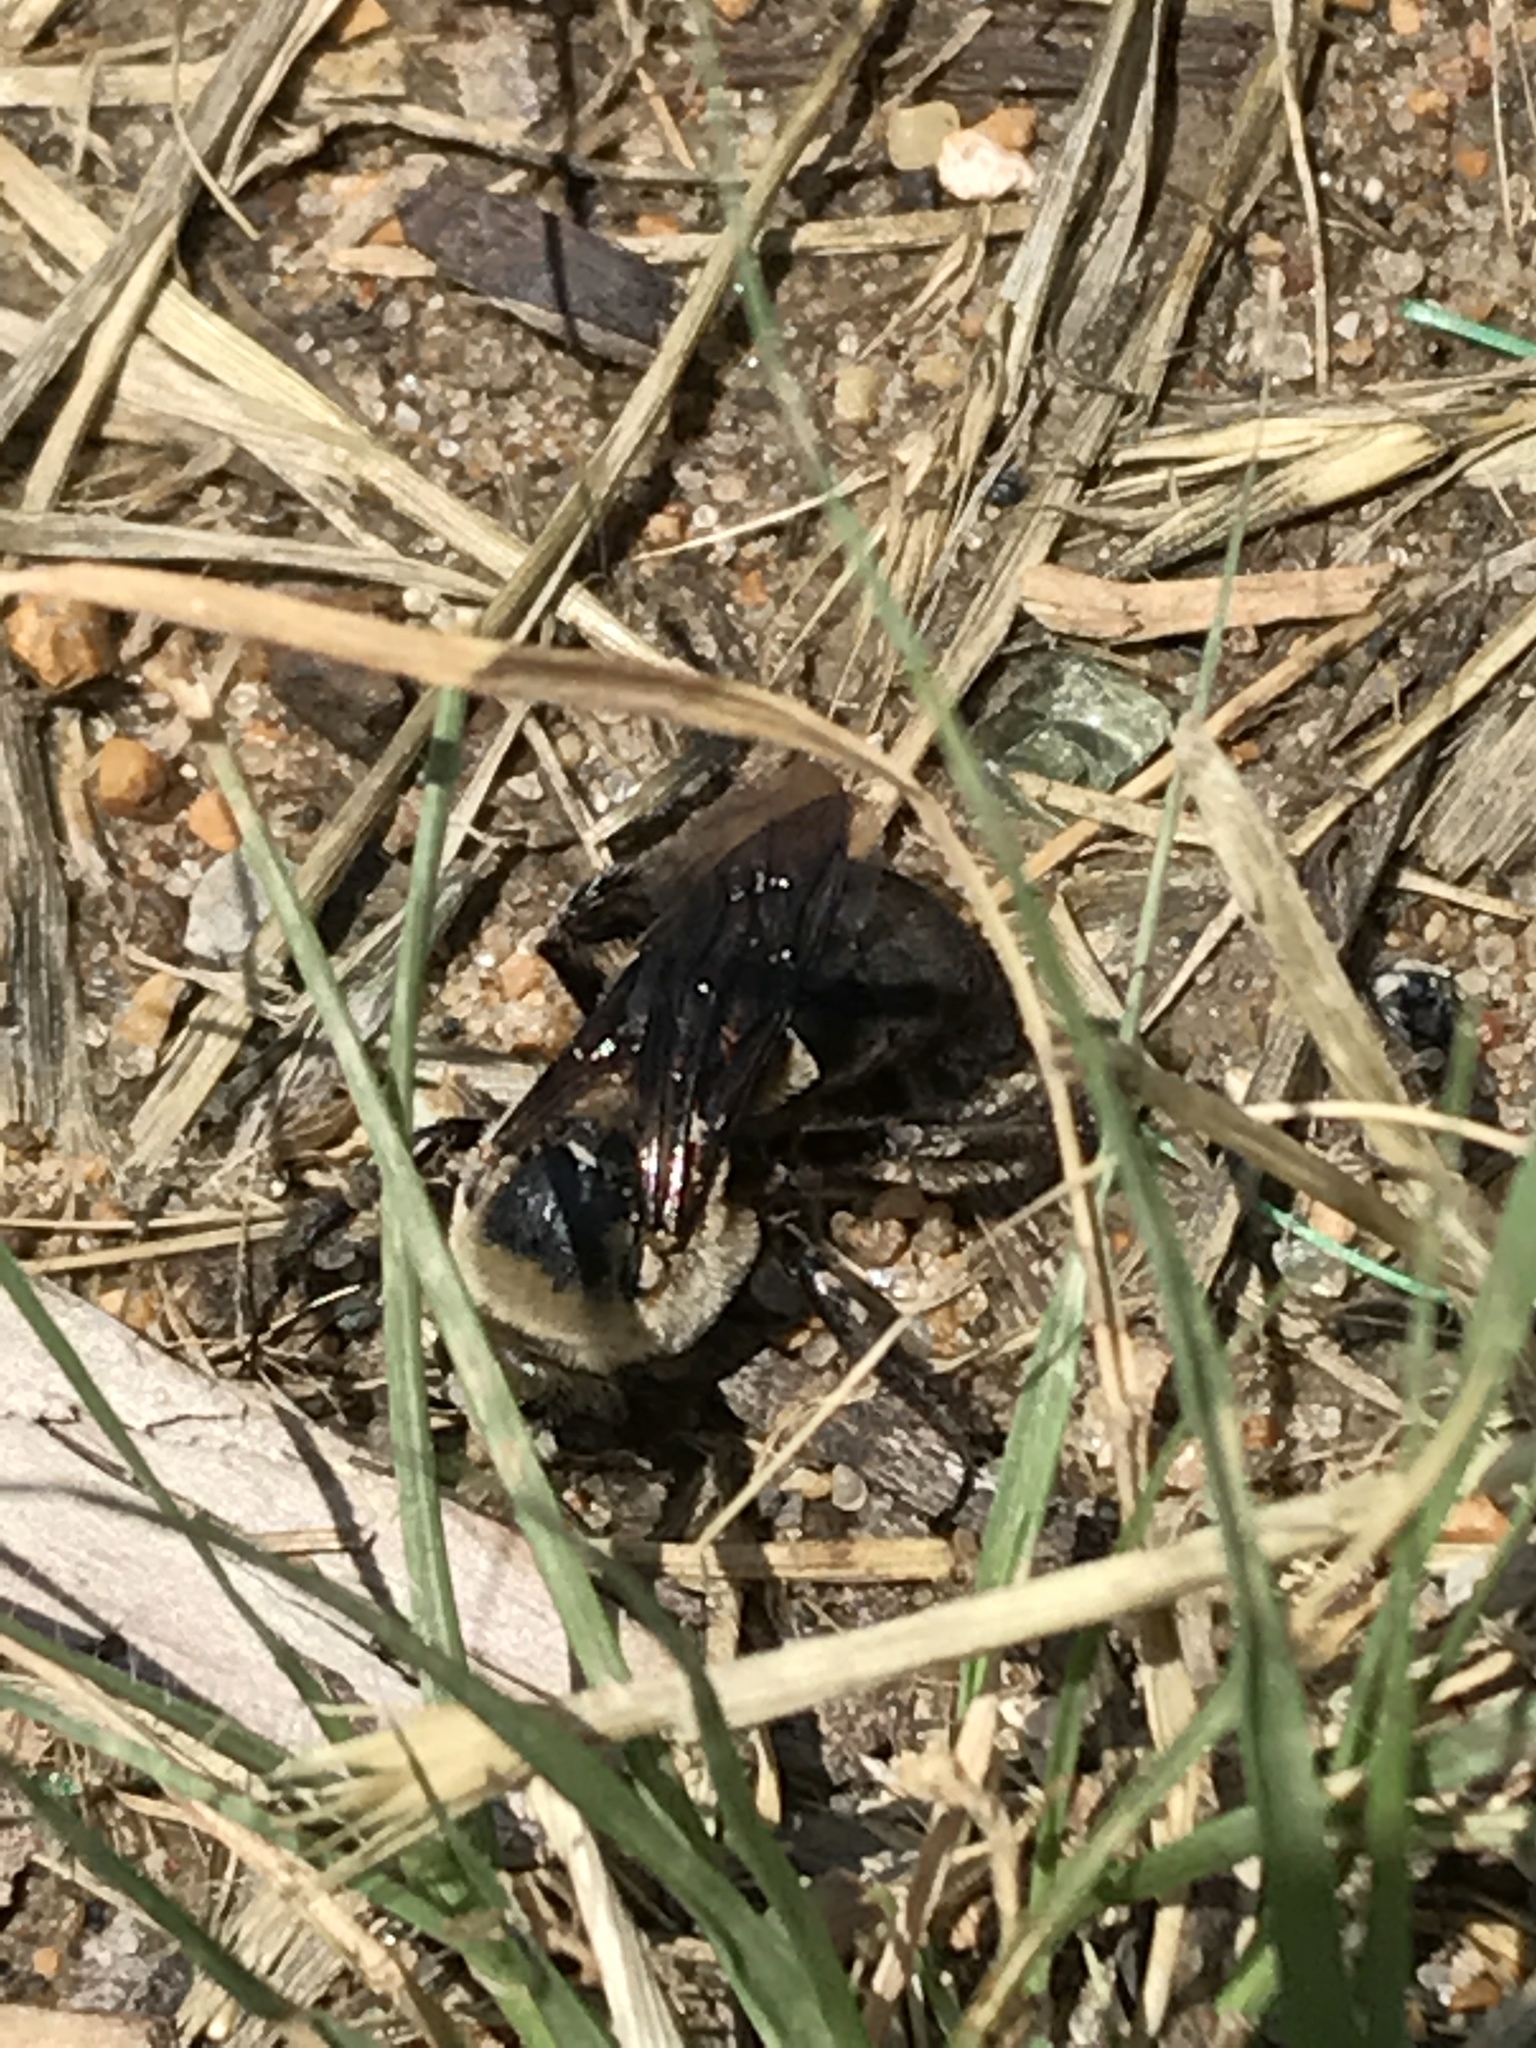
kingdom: Animalia
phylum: Arthropoda
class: Insecta
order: Hymenoptera
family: Apidae
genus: Ptilothrix
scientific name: Ptilothrix bombiformis
